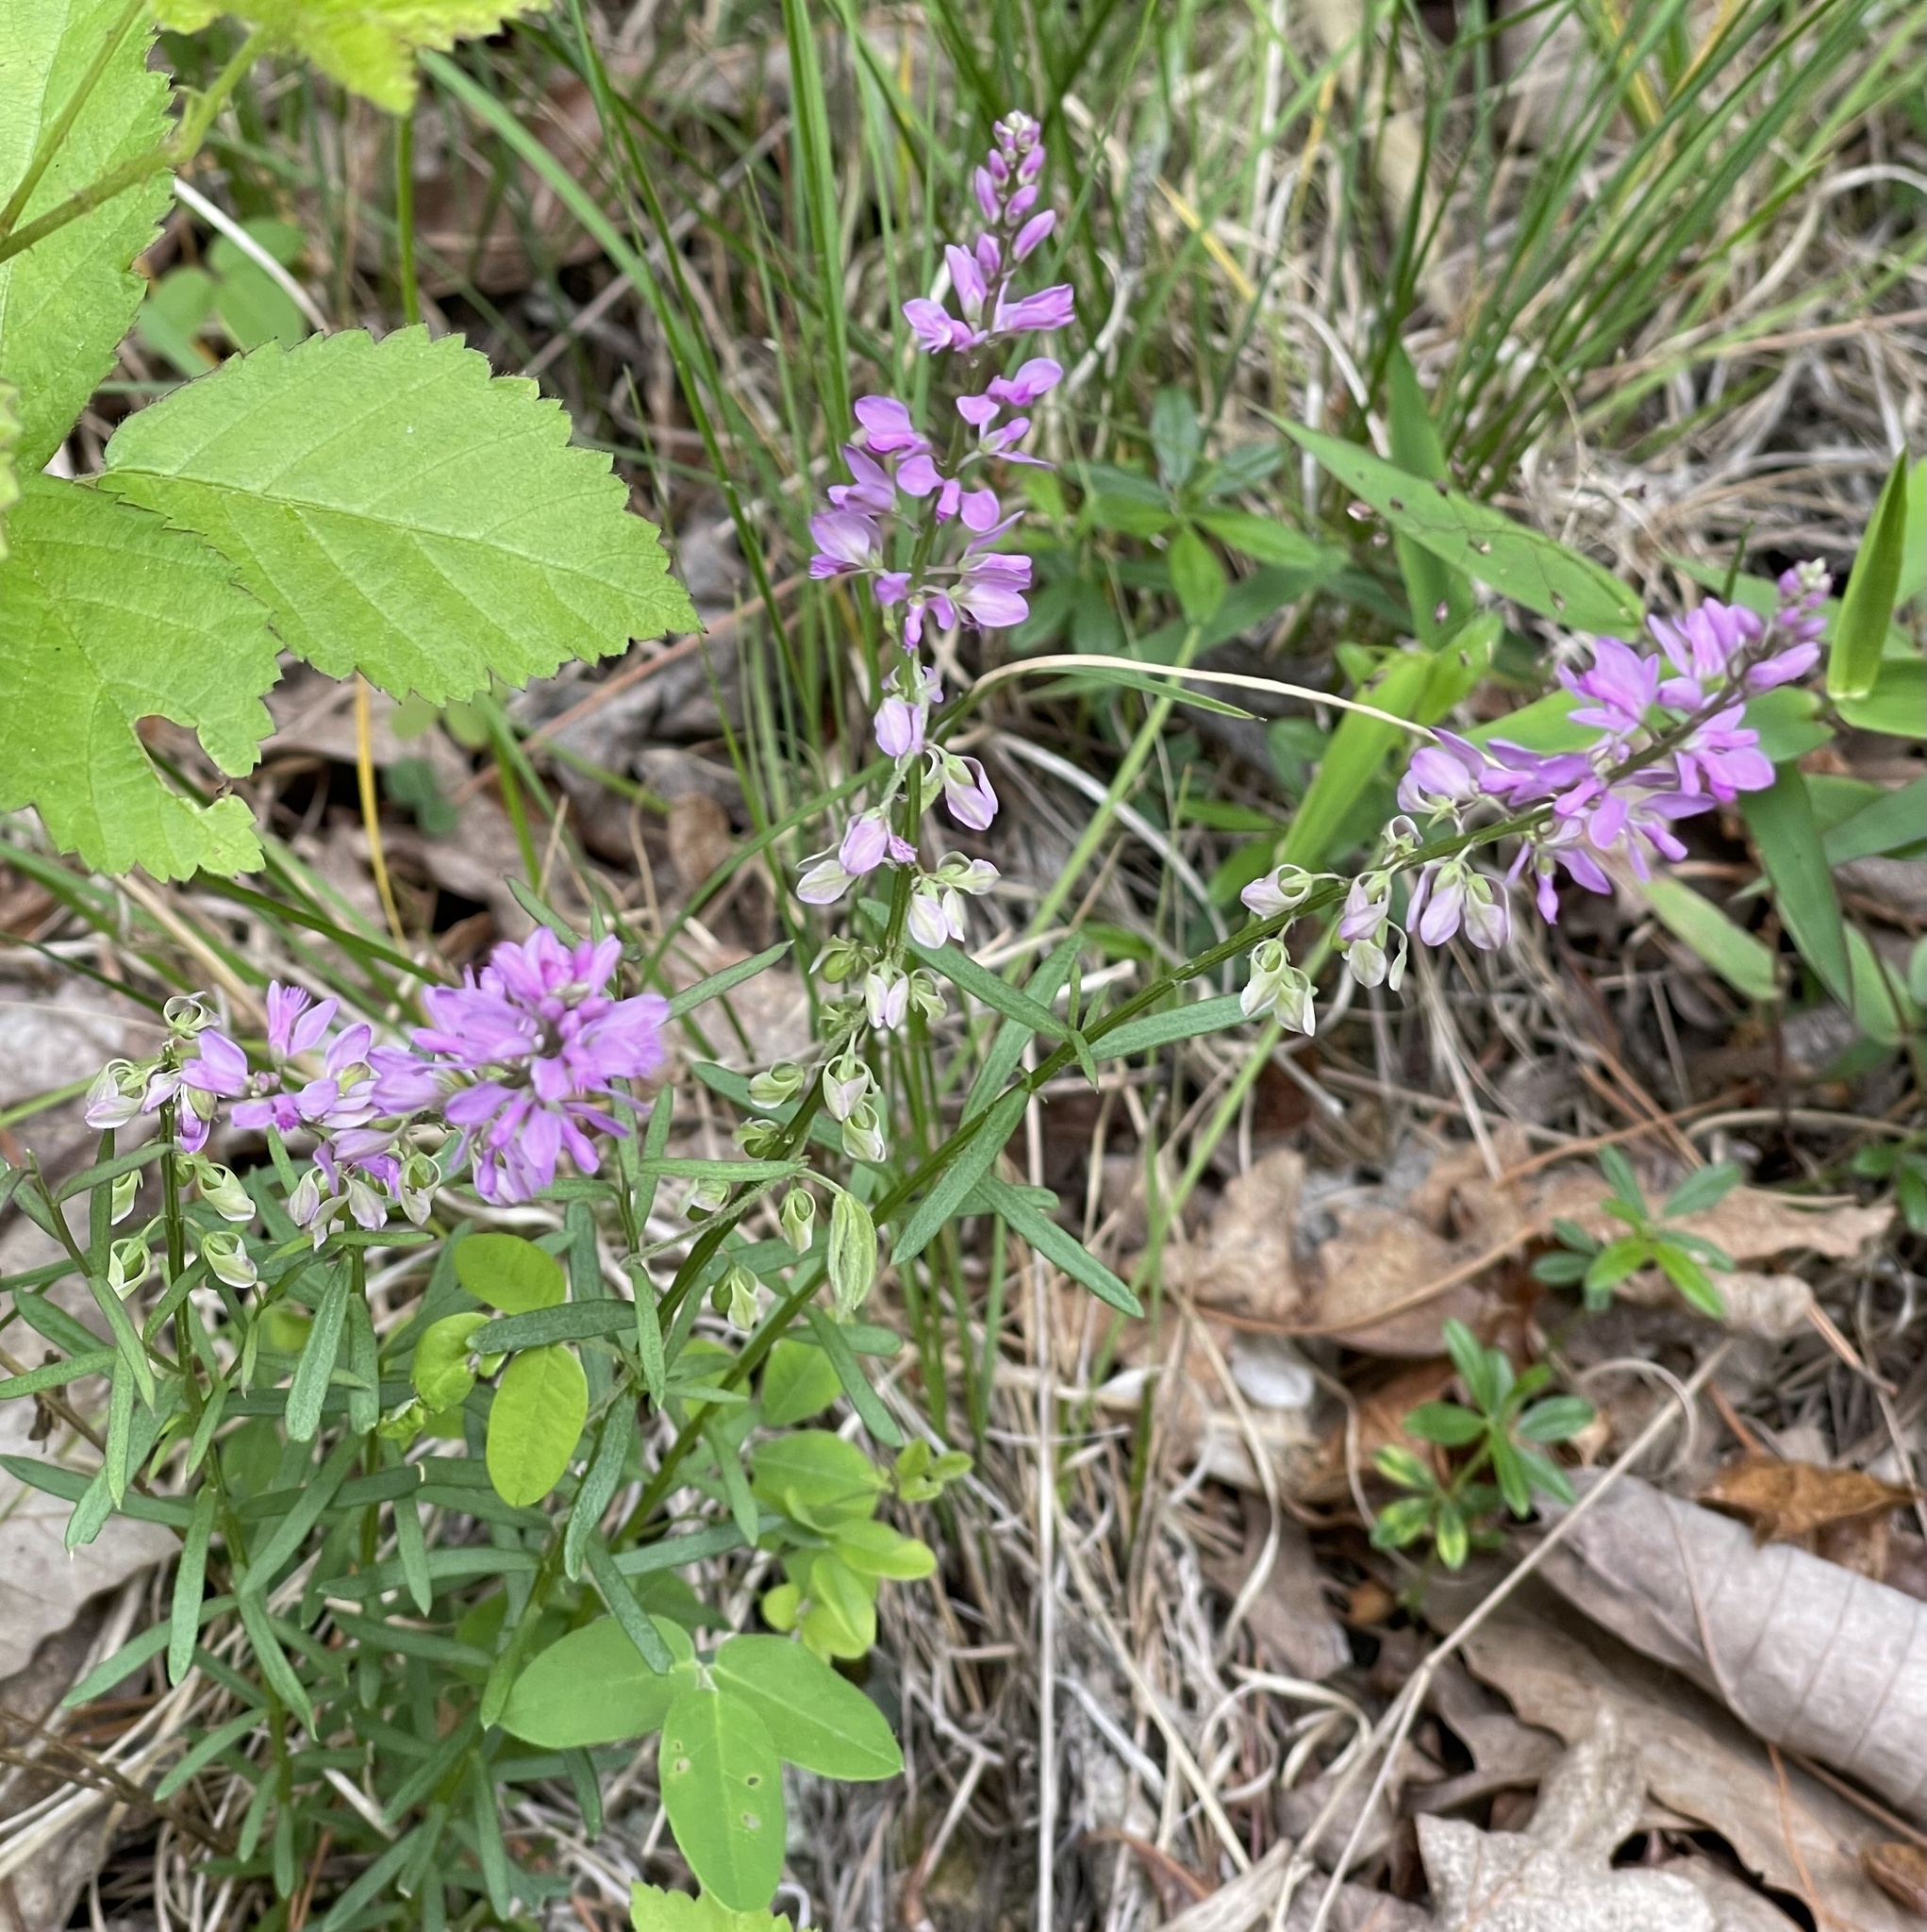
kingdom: Plantae
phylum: Tracheophyta
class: Magnoliopsida
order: Fabales
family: Polygalaceae
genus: Polygala
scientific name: Polygala polygama
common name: Bitter milkwort
